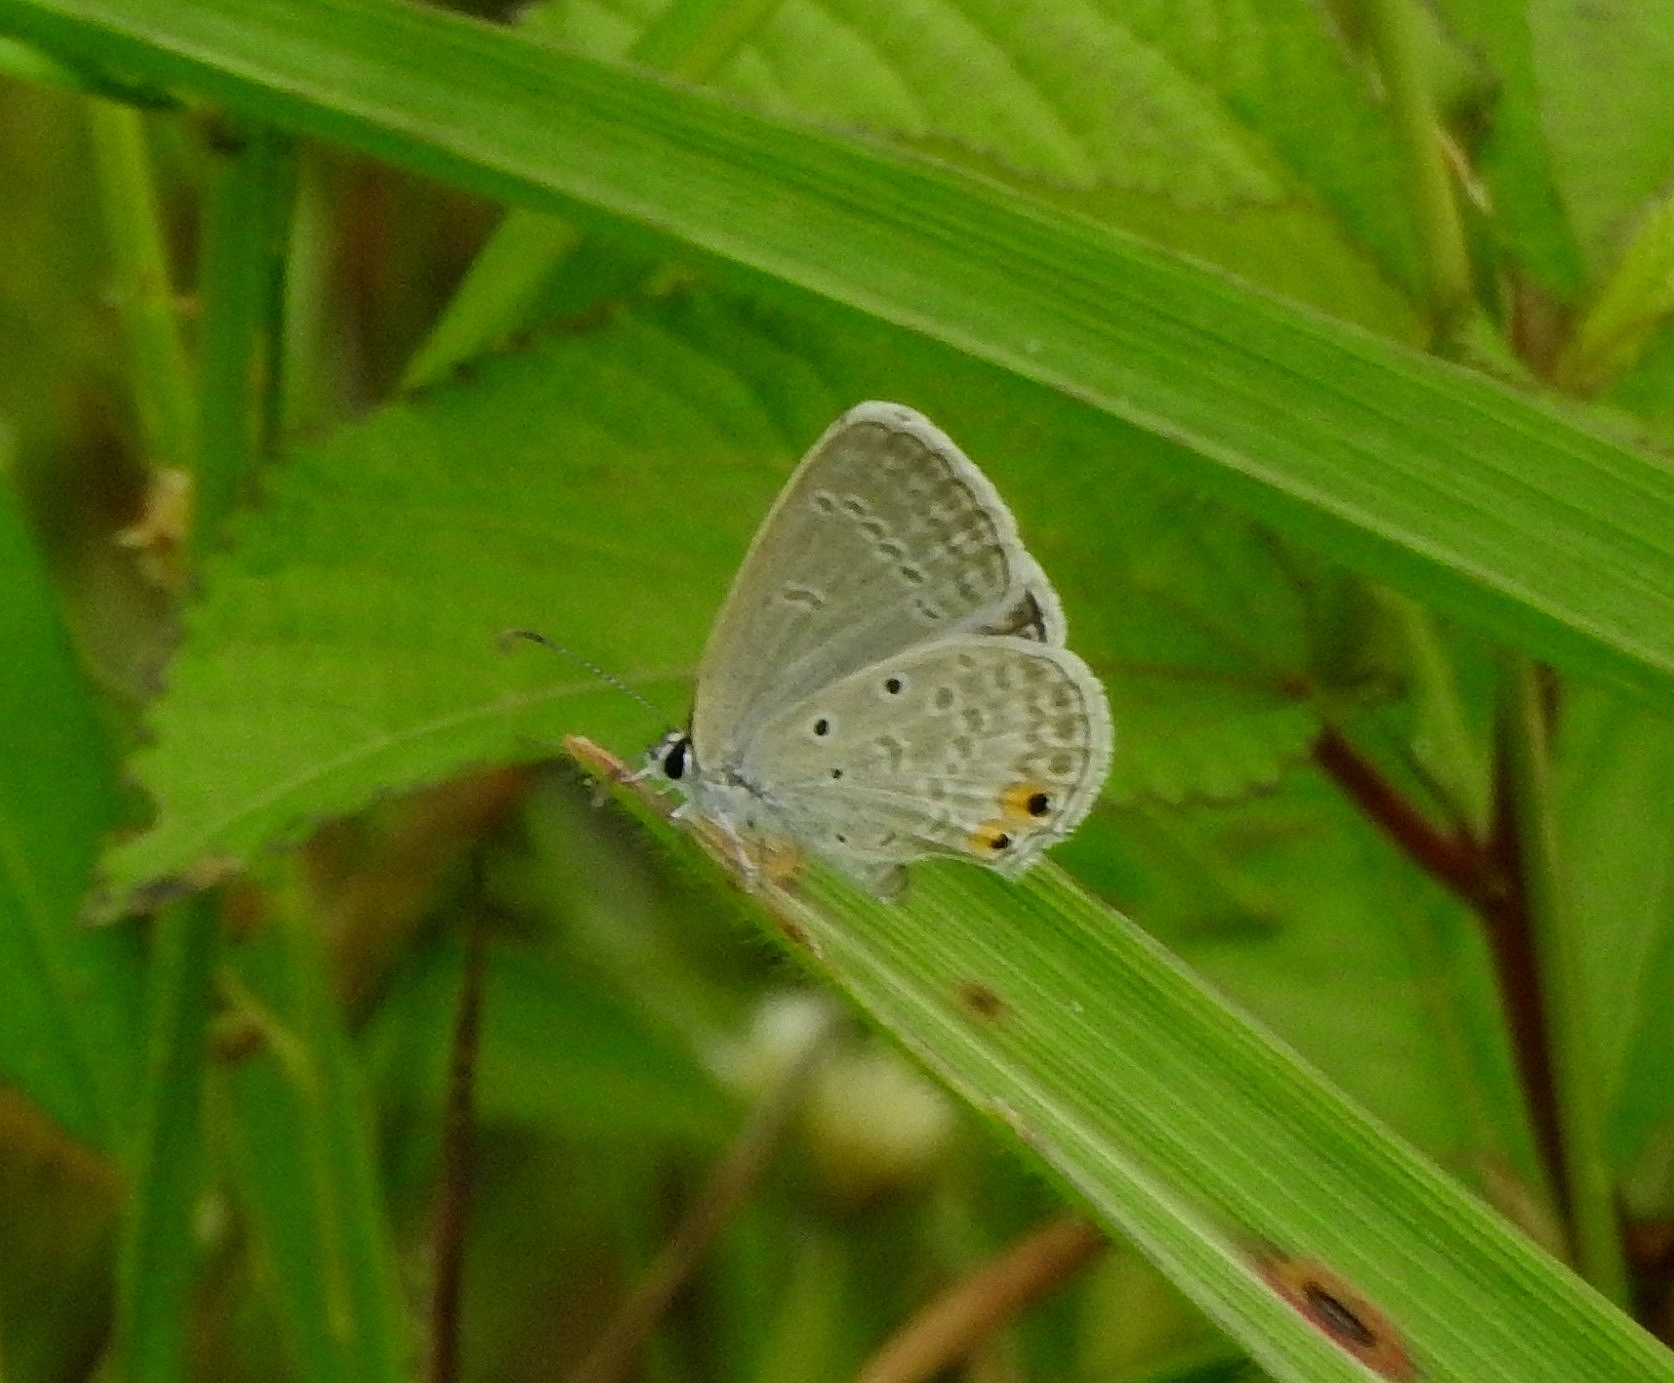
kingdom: Animalia
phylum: Arthropoda
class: Insecta
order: Lepidoptera
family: Lycaenidae
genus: Euchrysops
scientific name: Euchrysops cnejus
